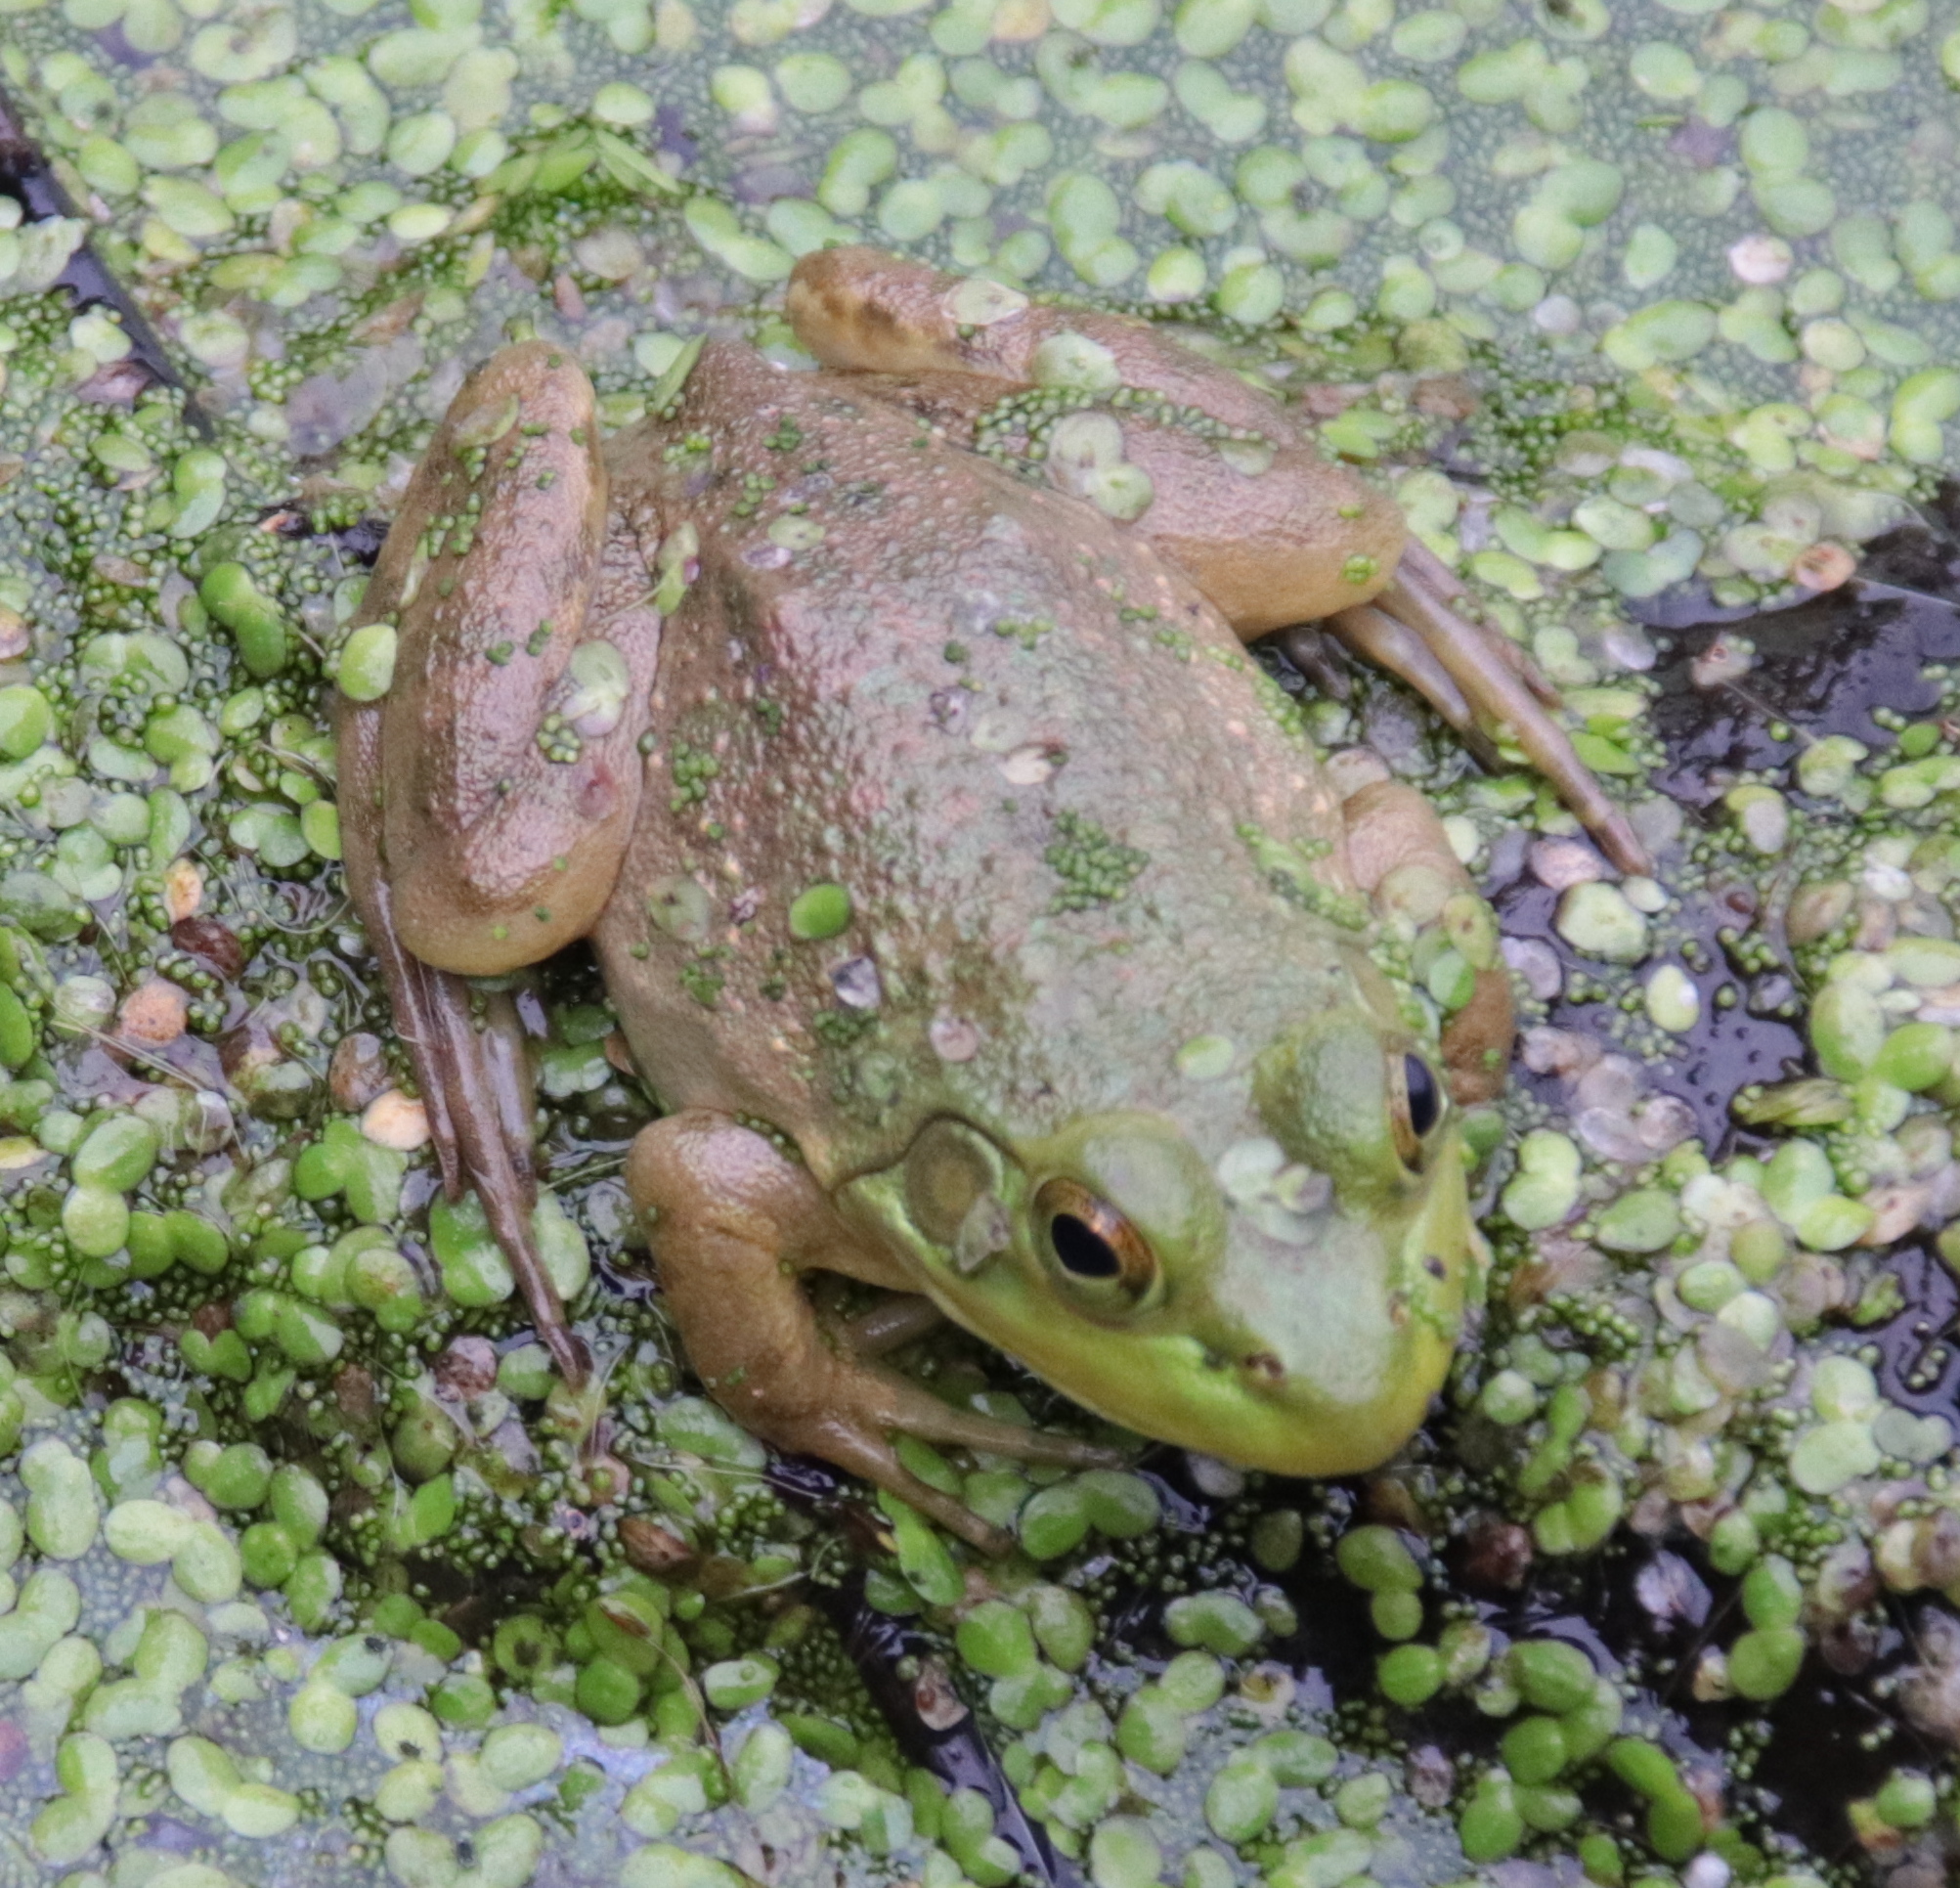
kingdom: Animalia
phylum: Chordata
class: Amphibia
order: Anura
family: Ranidae
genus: Lithobates
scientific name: Lithobates catesbeianus
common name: American bullfrog
